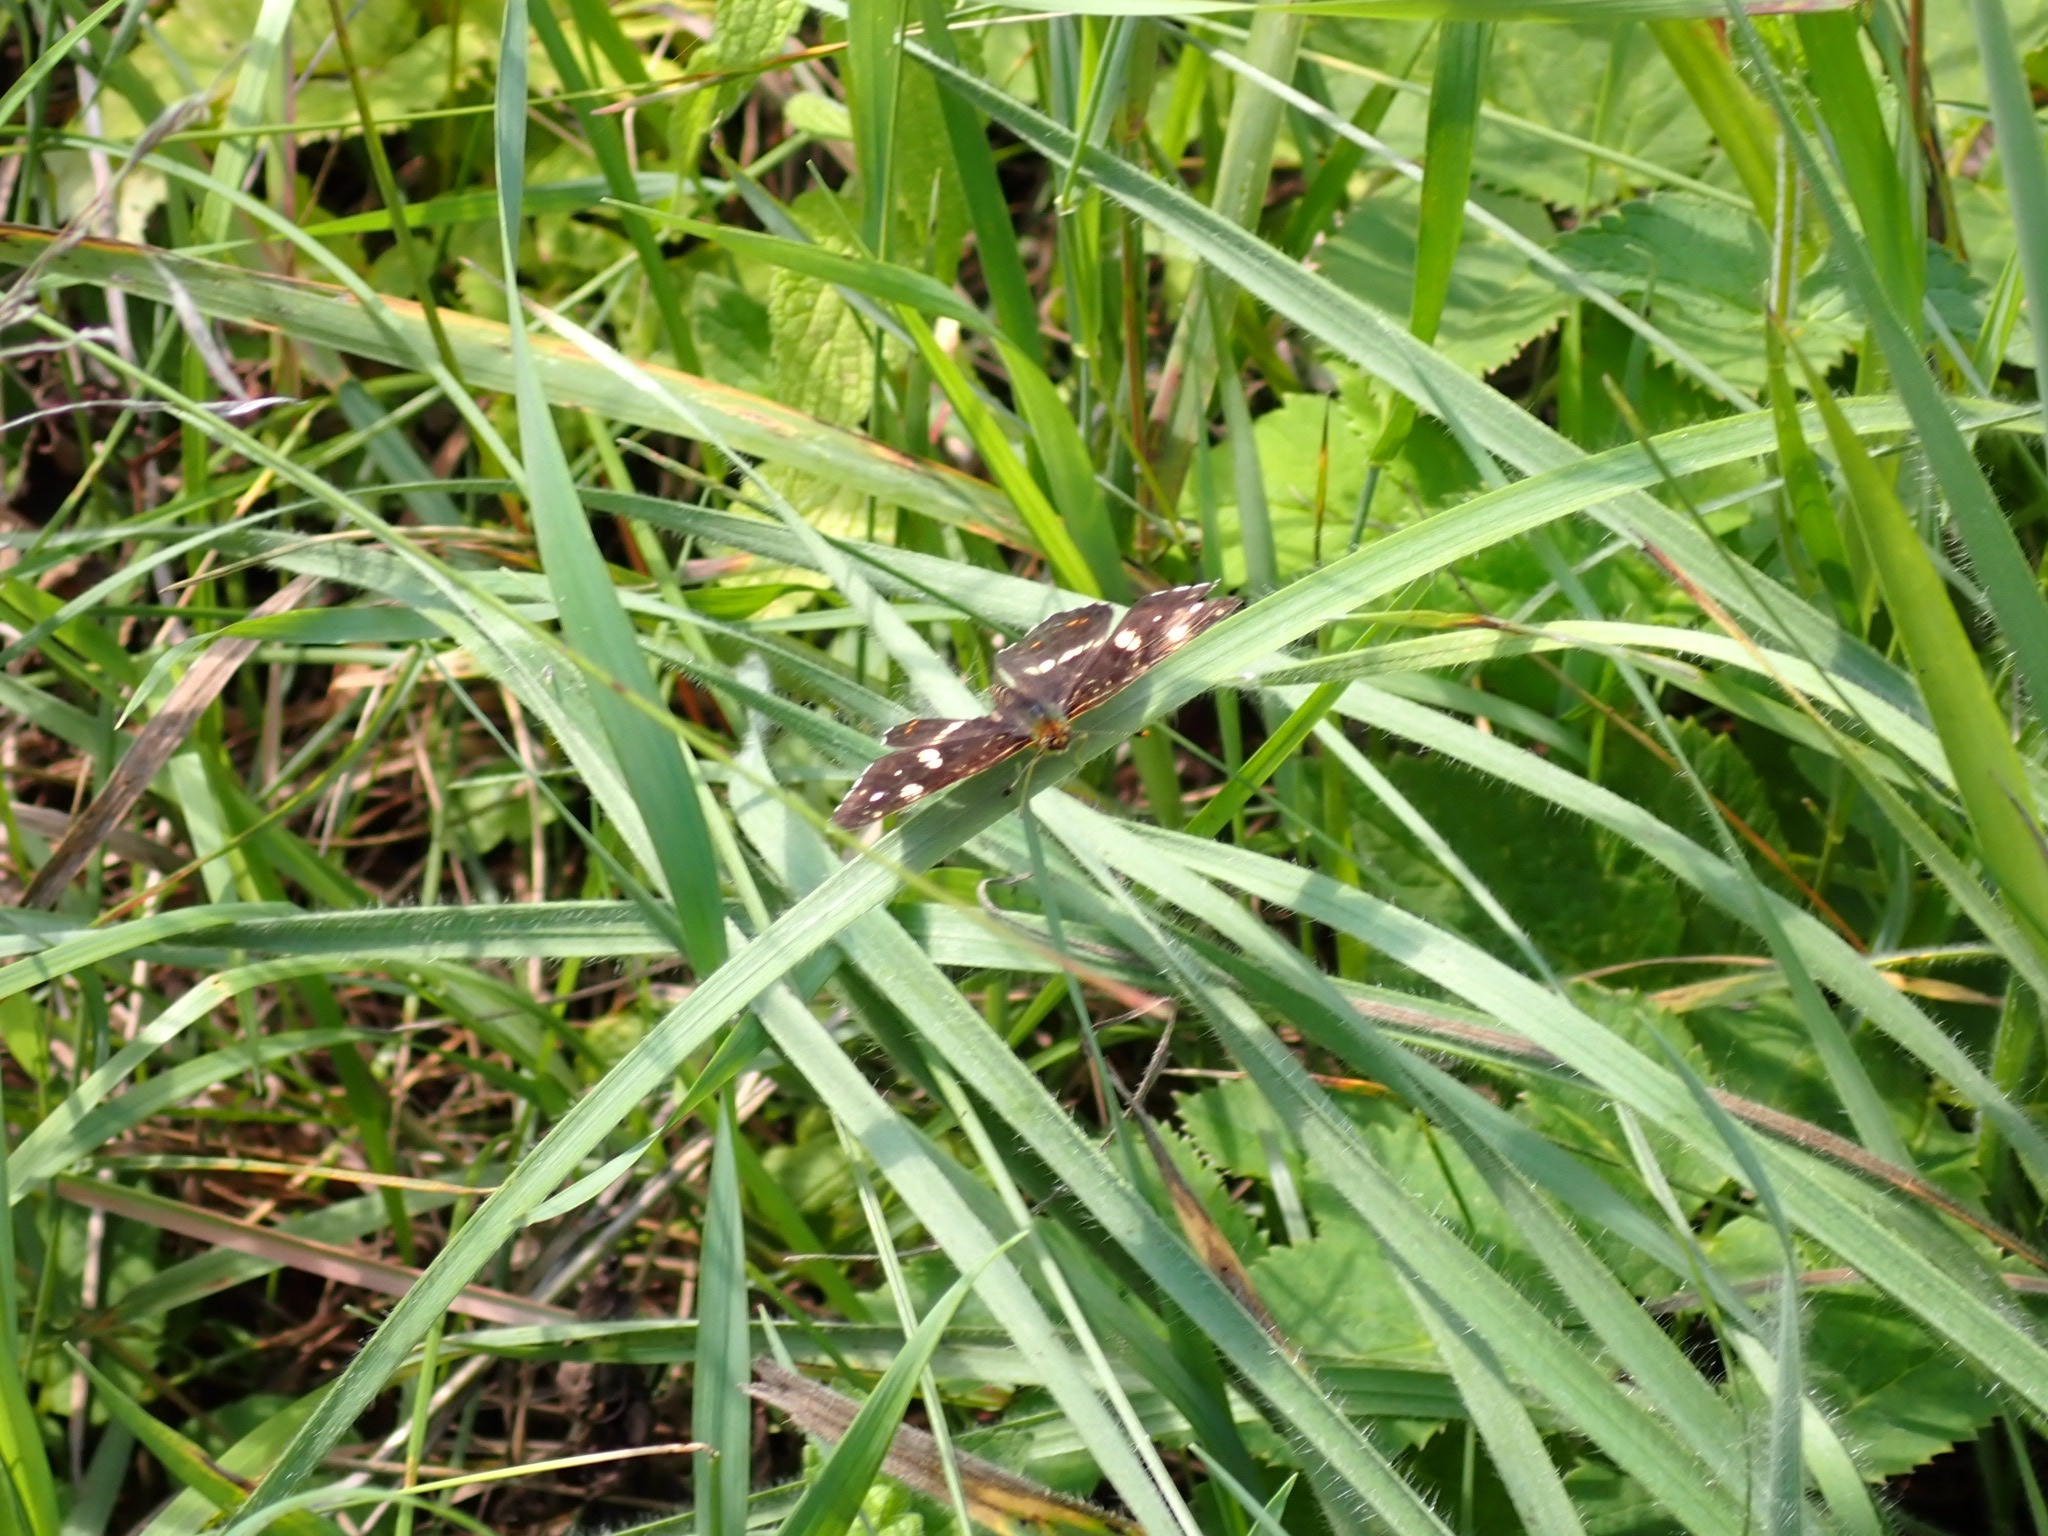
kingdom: Animalia
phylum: Arthropoda
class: Insecta
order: Lepidoptera
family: Nymphalidae
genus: Araschnia
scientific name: Araschnia levana
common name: Map butterfly
